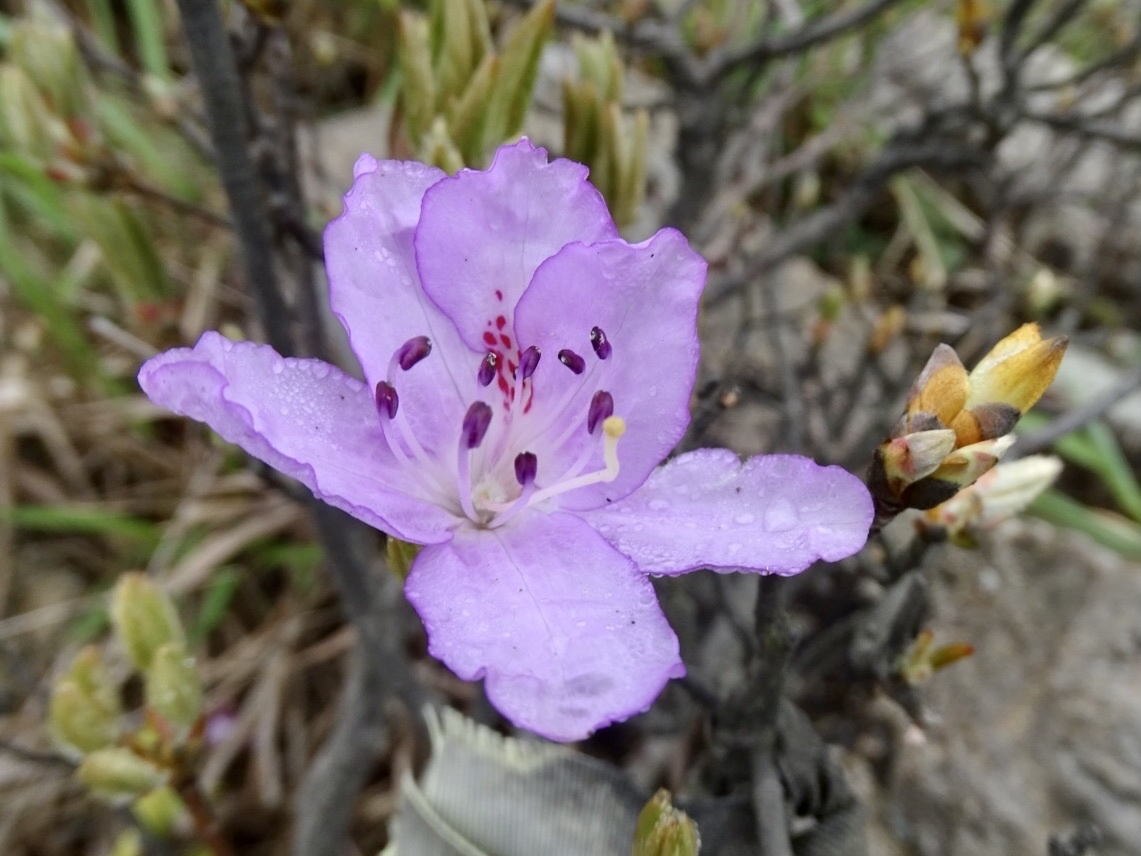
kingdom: Plantae
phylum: Tracheophyta
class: Magnoliopsida
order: Ericales
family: Ericaceae
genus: Rhododendron
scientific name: Rhododendron farrerae
